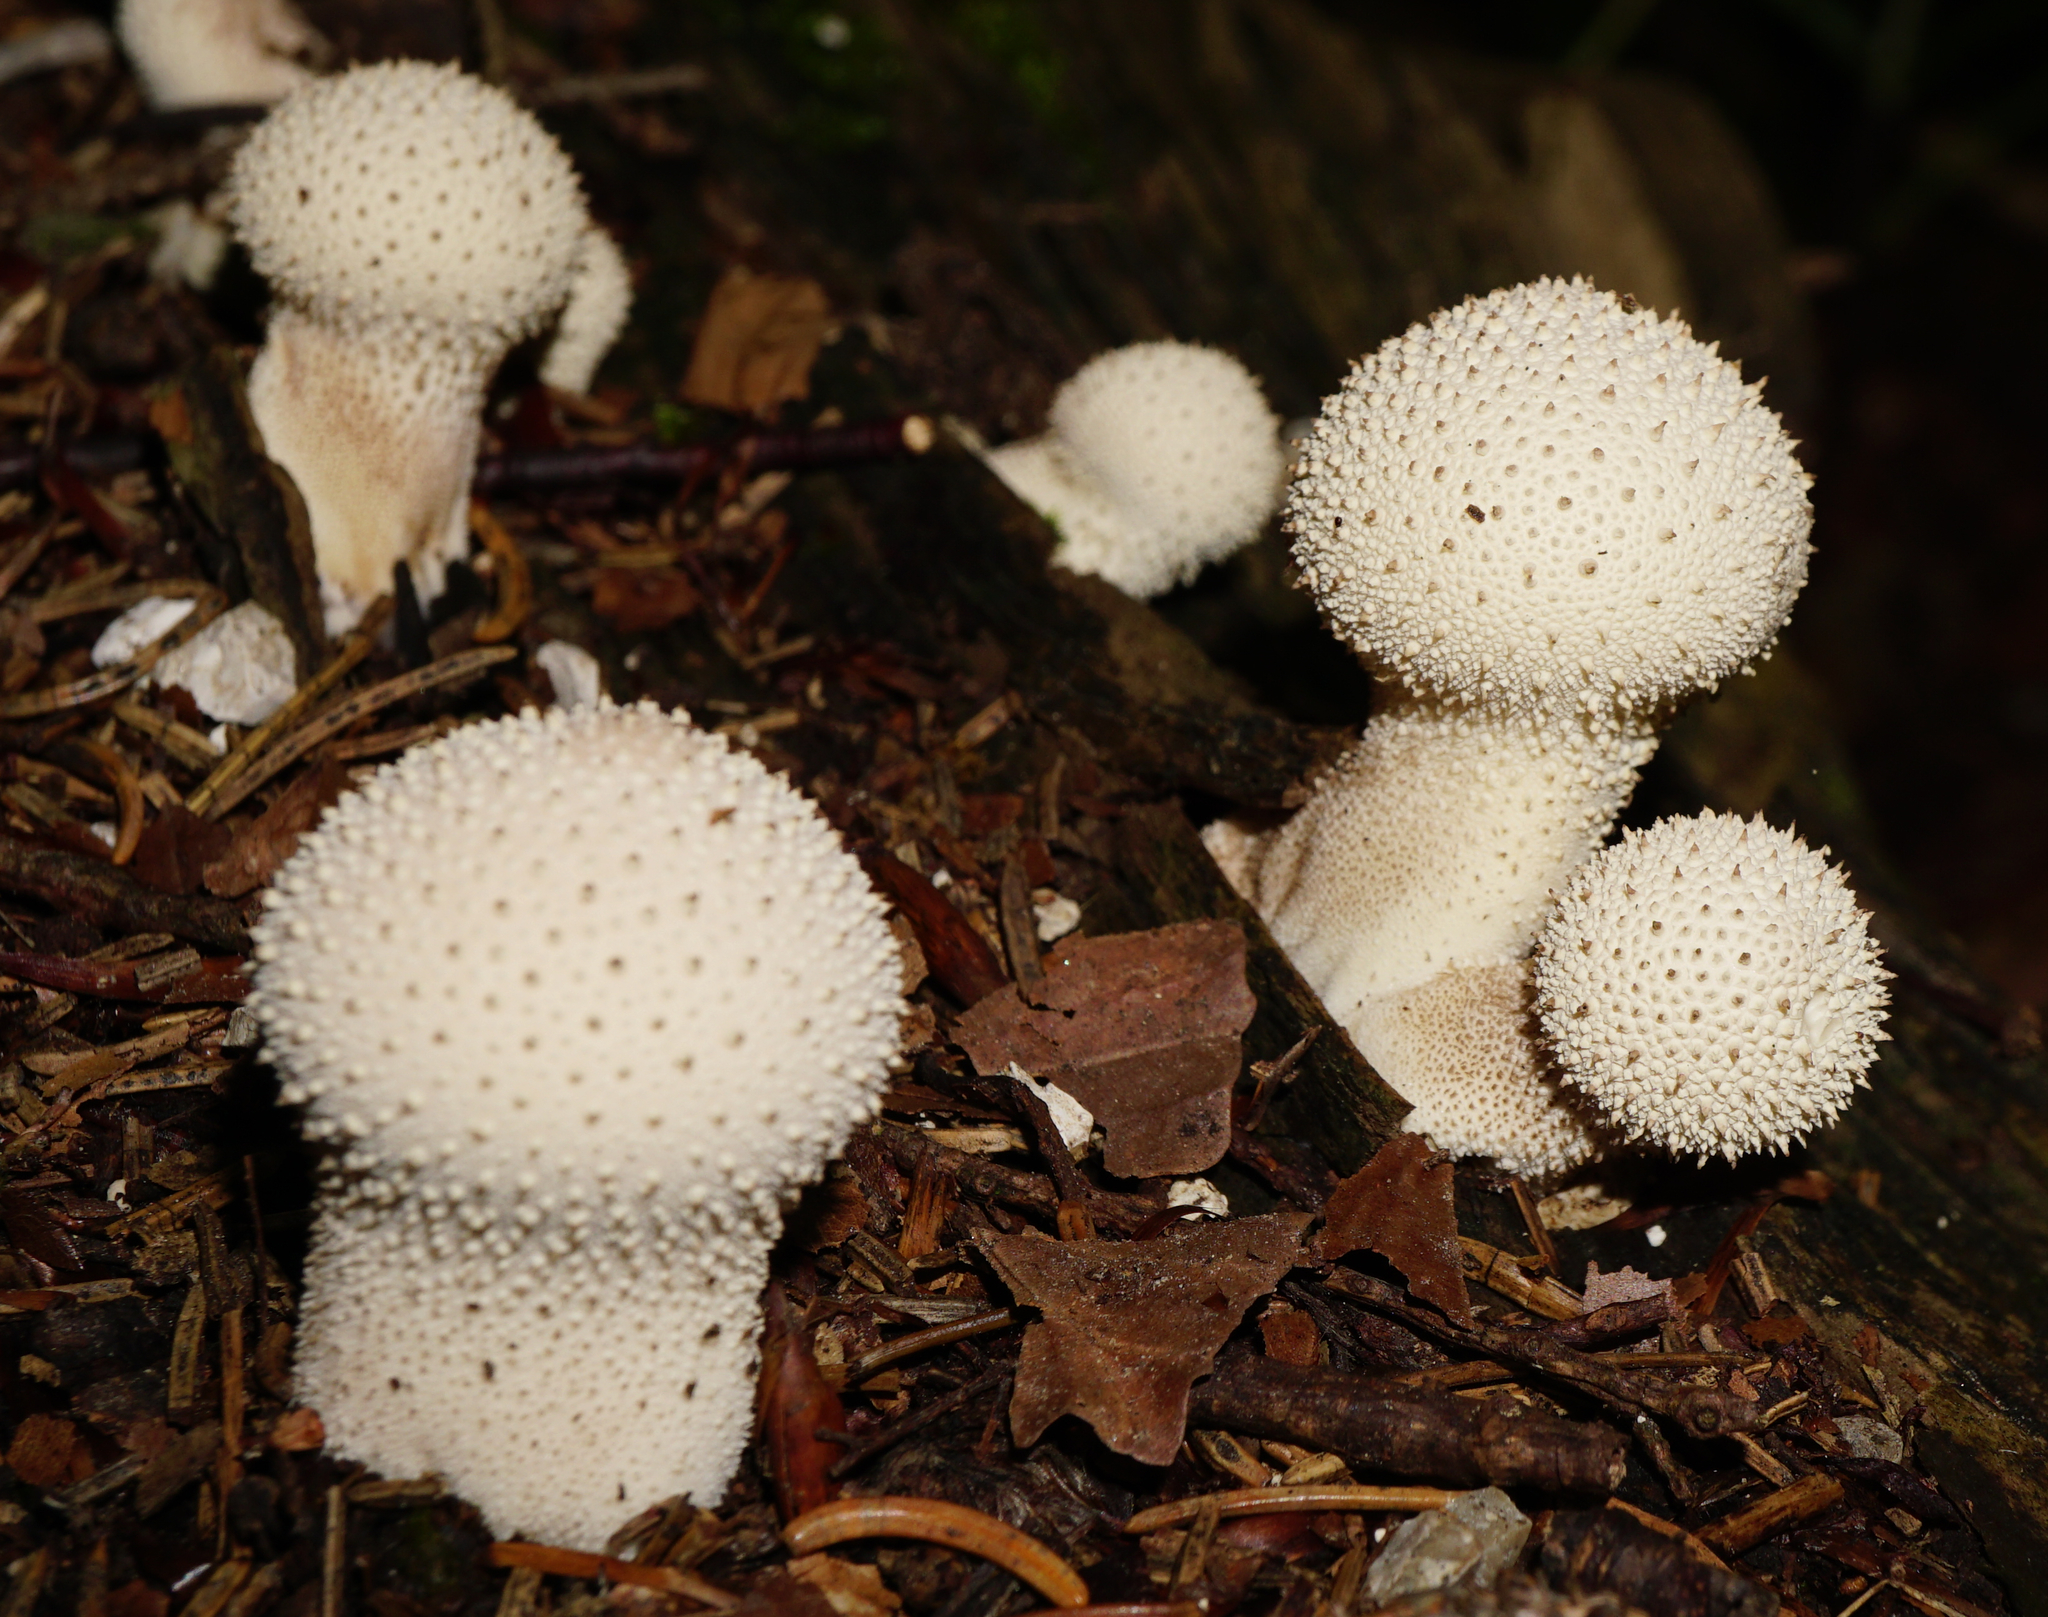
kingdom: Fungi
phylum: Basidiomycota
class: Agaricomycetes
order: Agaricales
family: Lycoperdaceae
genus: Lycoperdon
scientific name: Lycoperdon perlatum
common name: Common puffball
